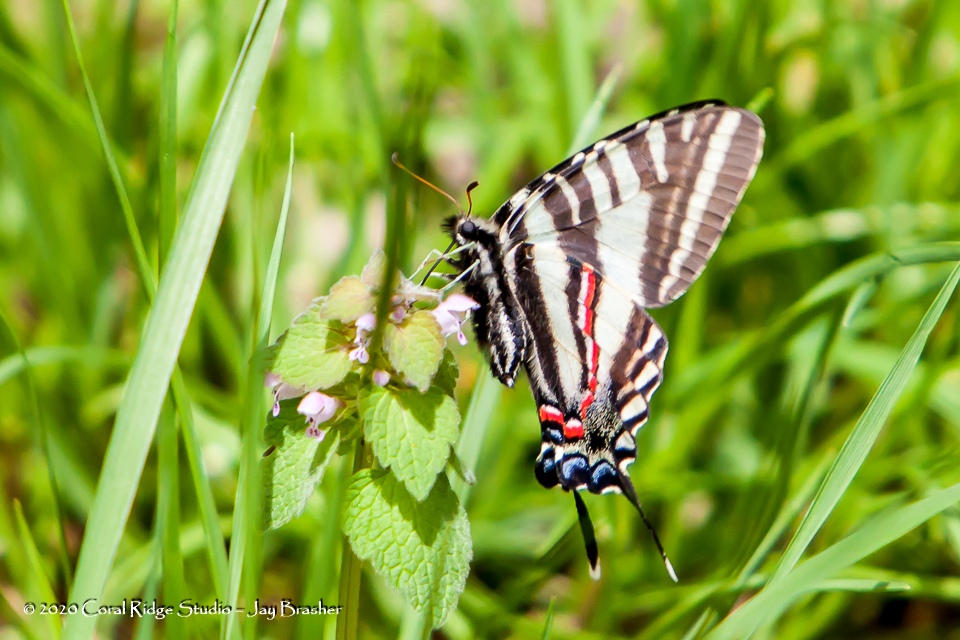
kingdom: Animalia
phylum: Arthropoda
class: Insecta
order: Lepidoptera
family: Papilionidae
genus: Protographium
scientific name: Protographium marcellus
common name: Zebra swallowtail
